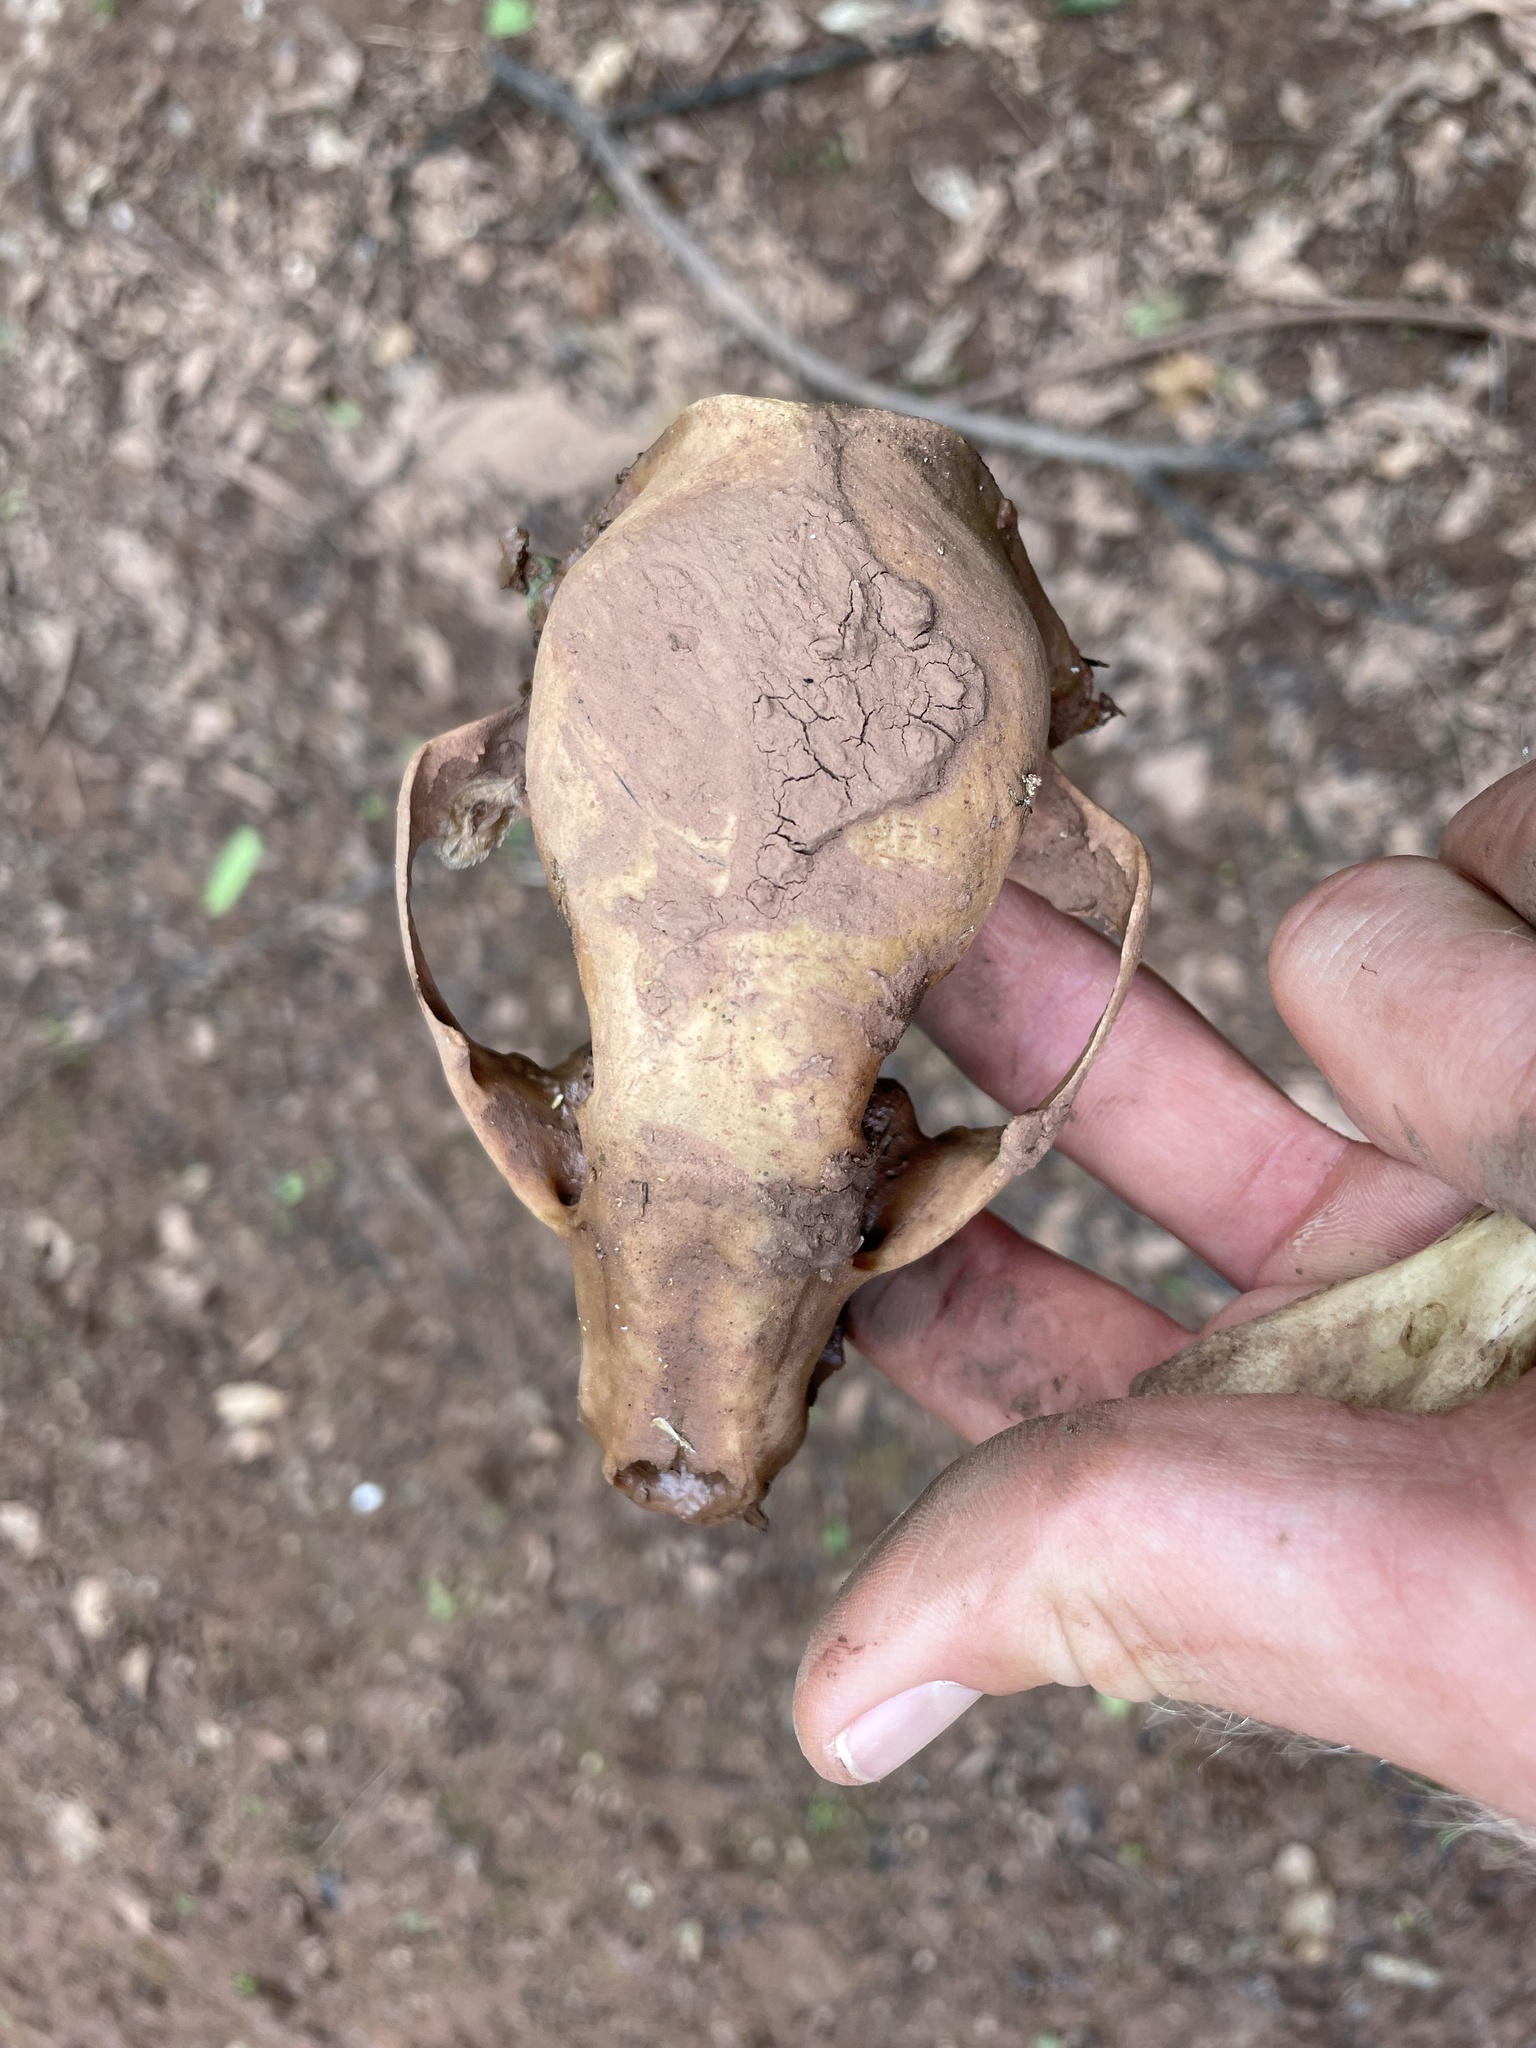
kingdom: Animalia
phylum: Chordata
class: Mammalia
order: Carnivora
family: Procyonidae
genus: Procyon
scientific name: Procyon lotor
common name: Raccoon
